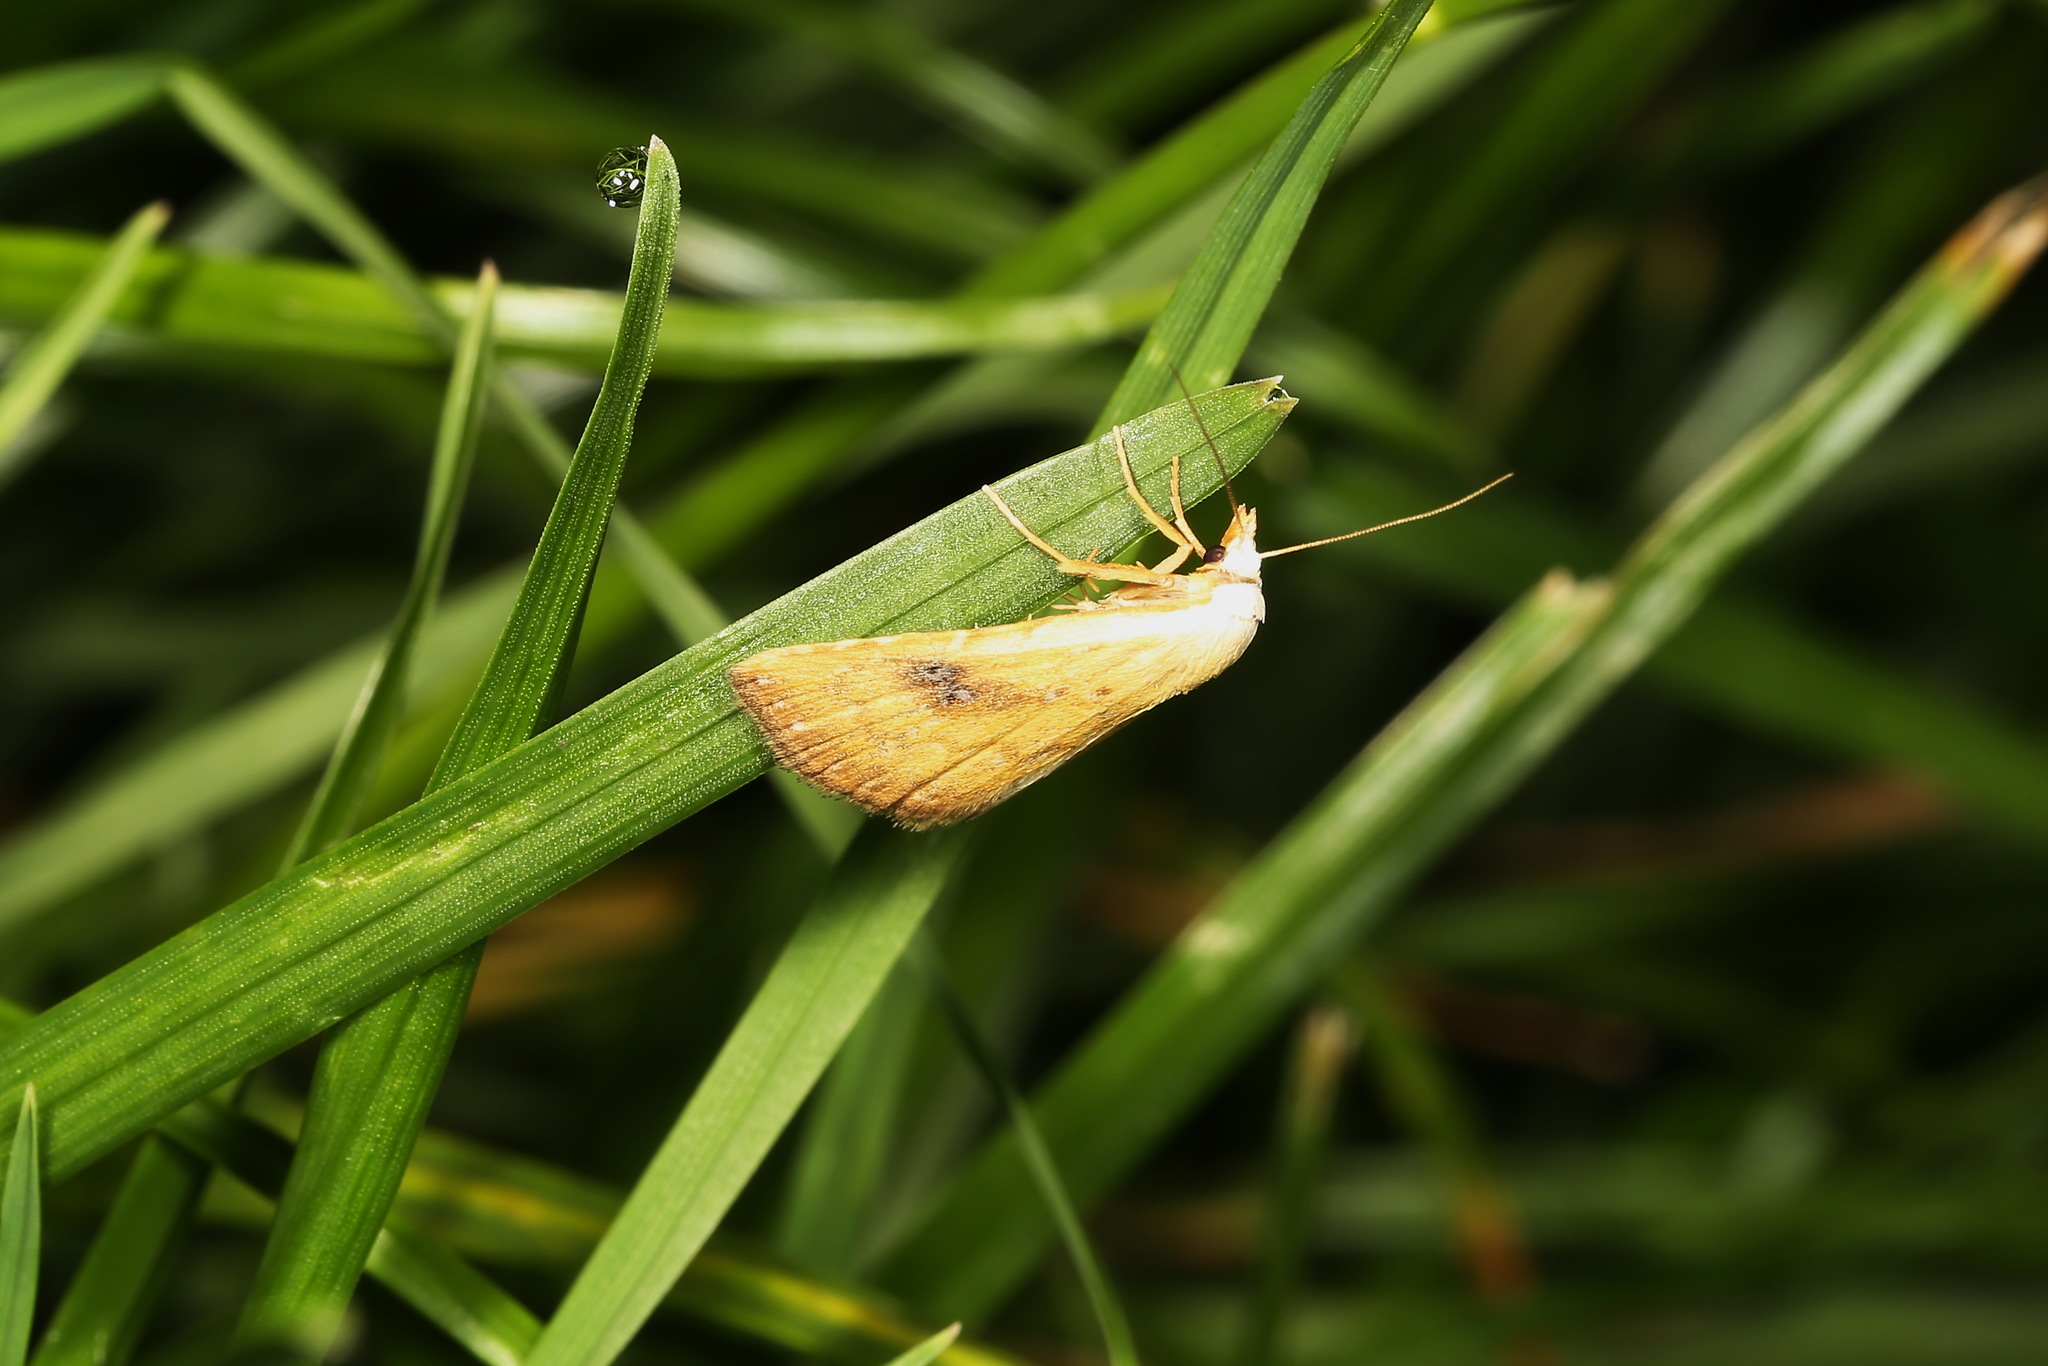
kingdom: Animalia
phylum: Arthropoda
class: Insecta
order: Lepidoptera
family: Erebidae
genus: Rivula
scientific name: Rivula sericealis
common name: Straw dot
